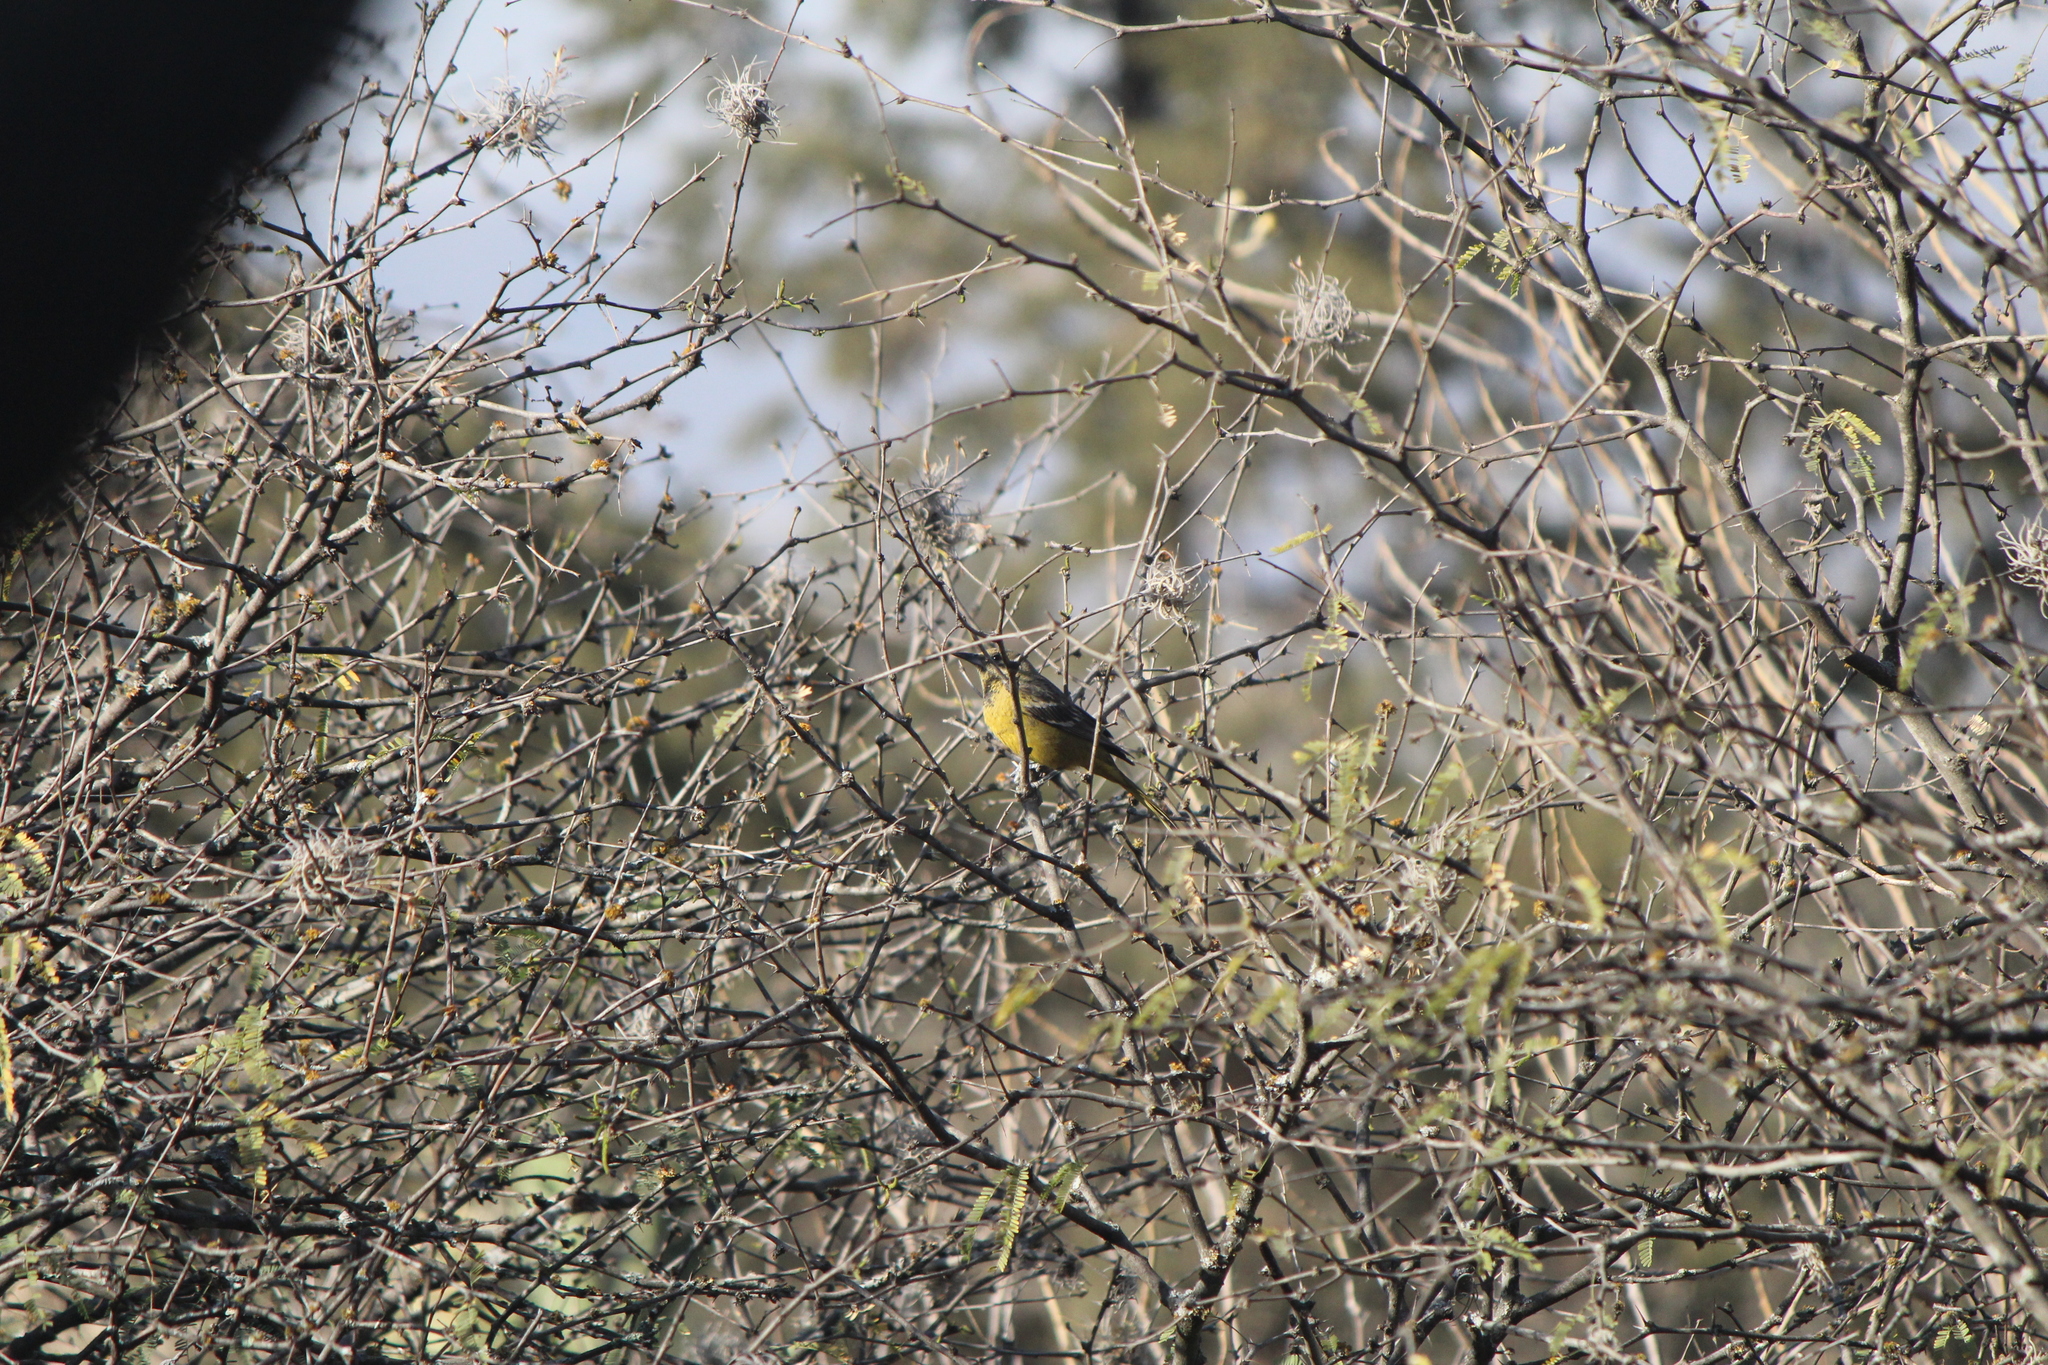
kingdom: Animalia
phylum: Chordata
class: Aves
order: Passeriformes
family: Icteridae
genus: Icterus
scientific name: Icterus parisorum
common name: Scott's oriole
